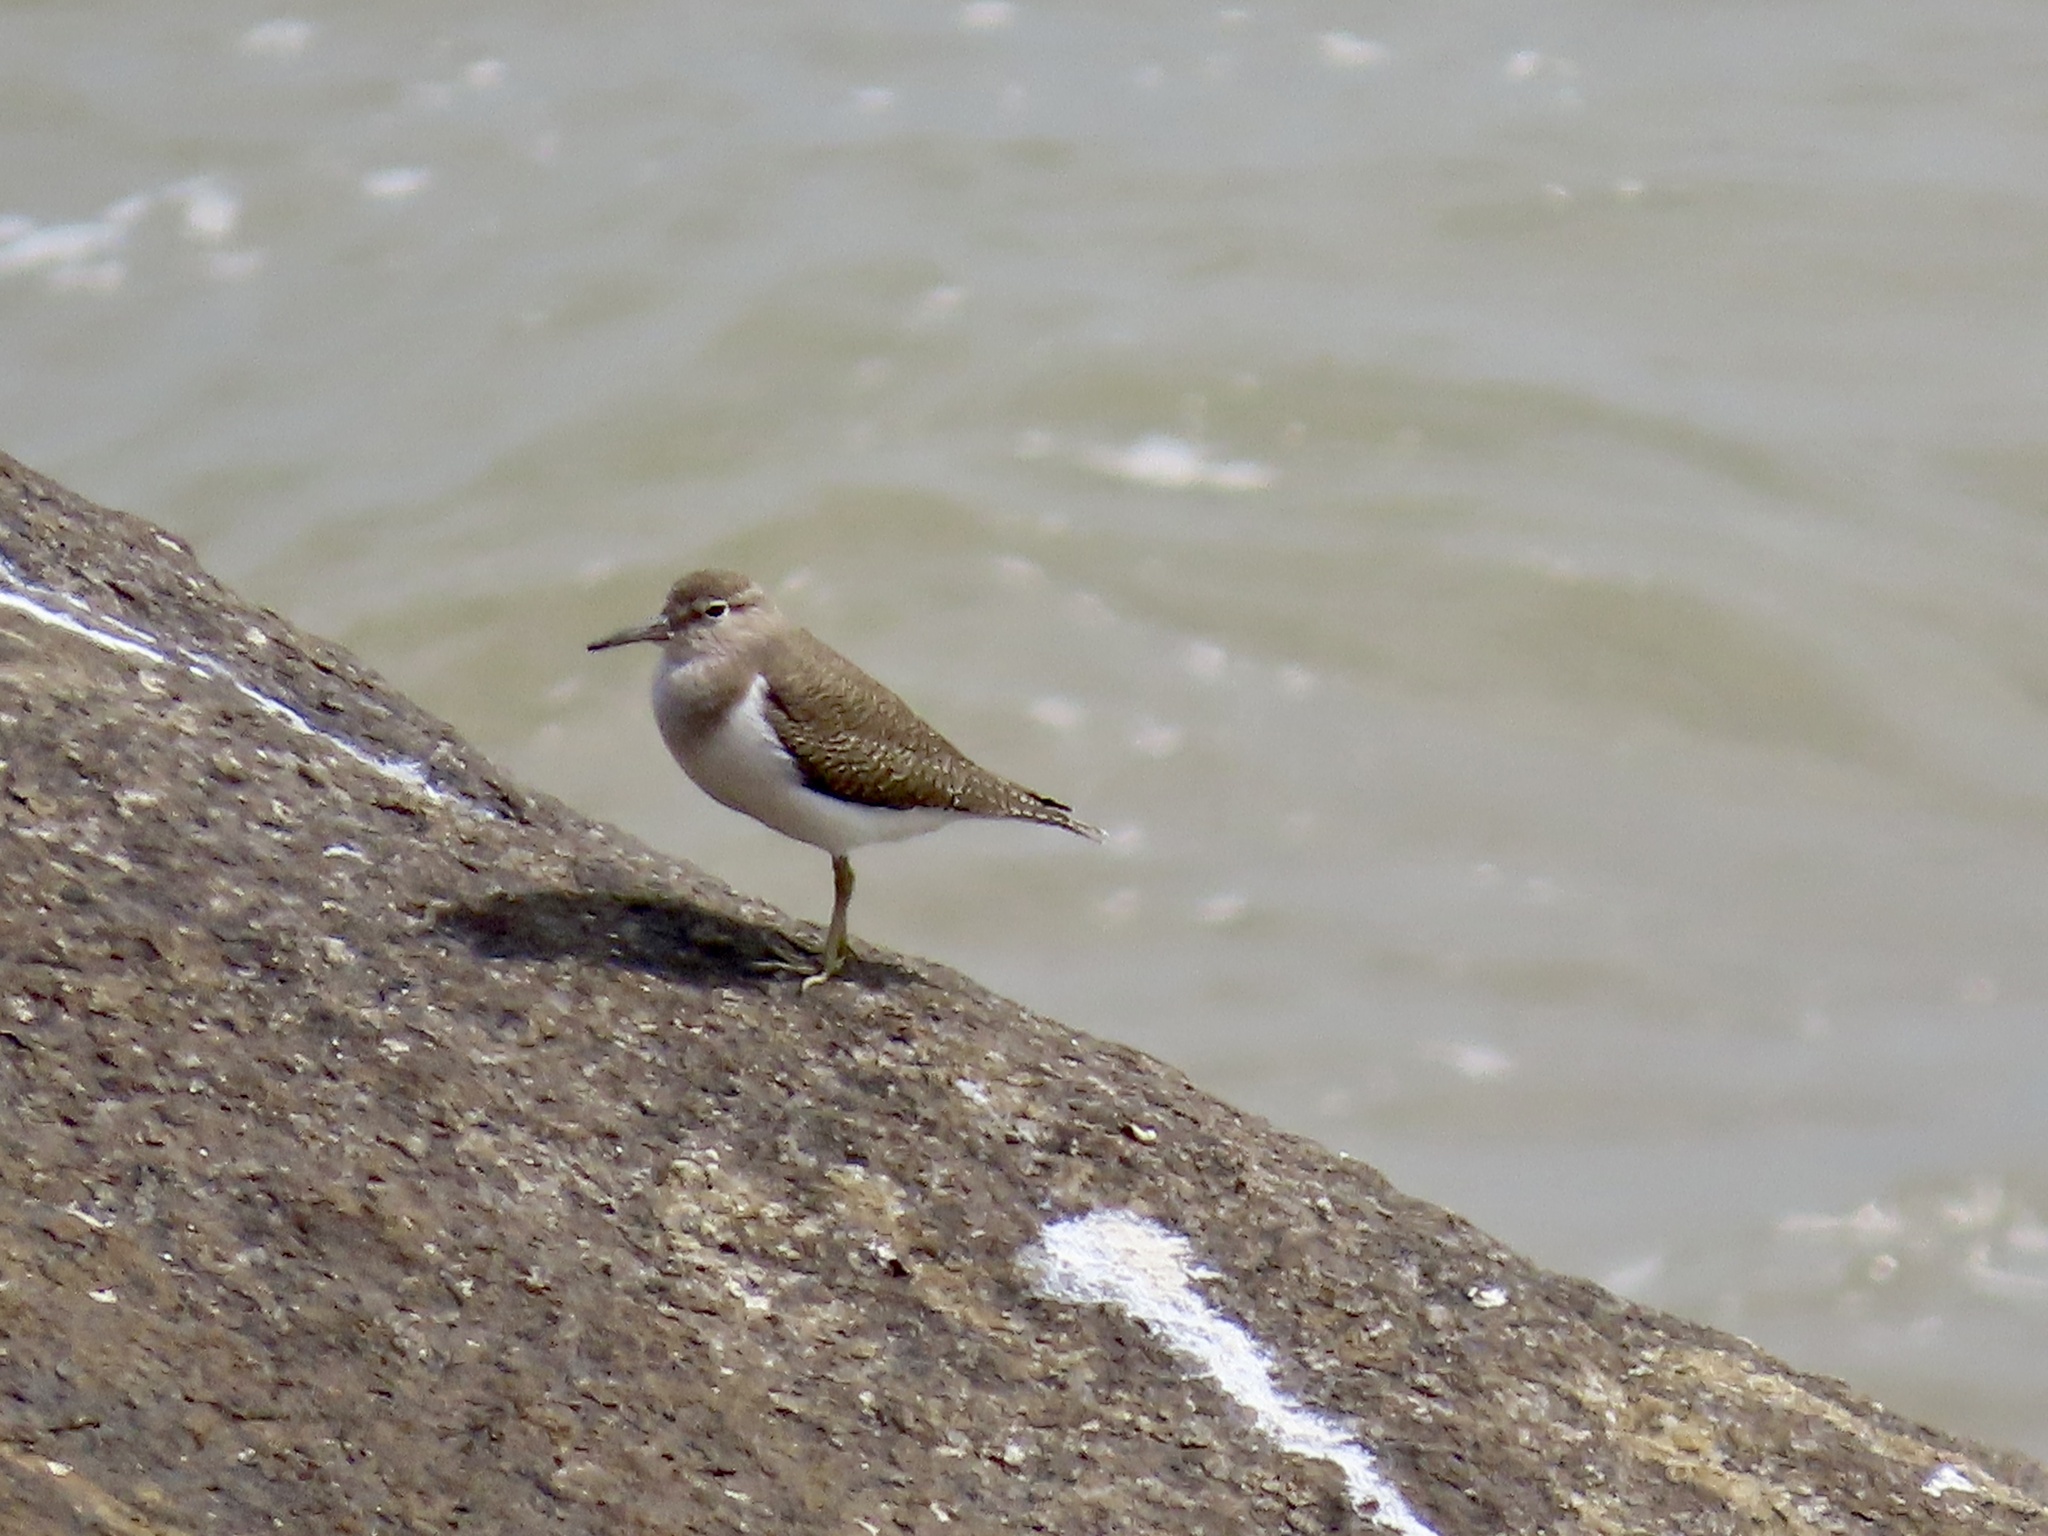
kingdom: Animalia
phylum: Chordata
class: Aves
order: Charadriiformes
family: Scolopacidae
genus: Actitis
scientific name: Actitis hypoleucos
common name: Common sandpiper
